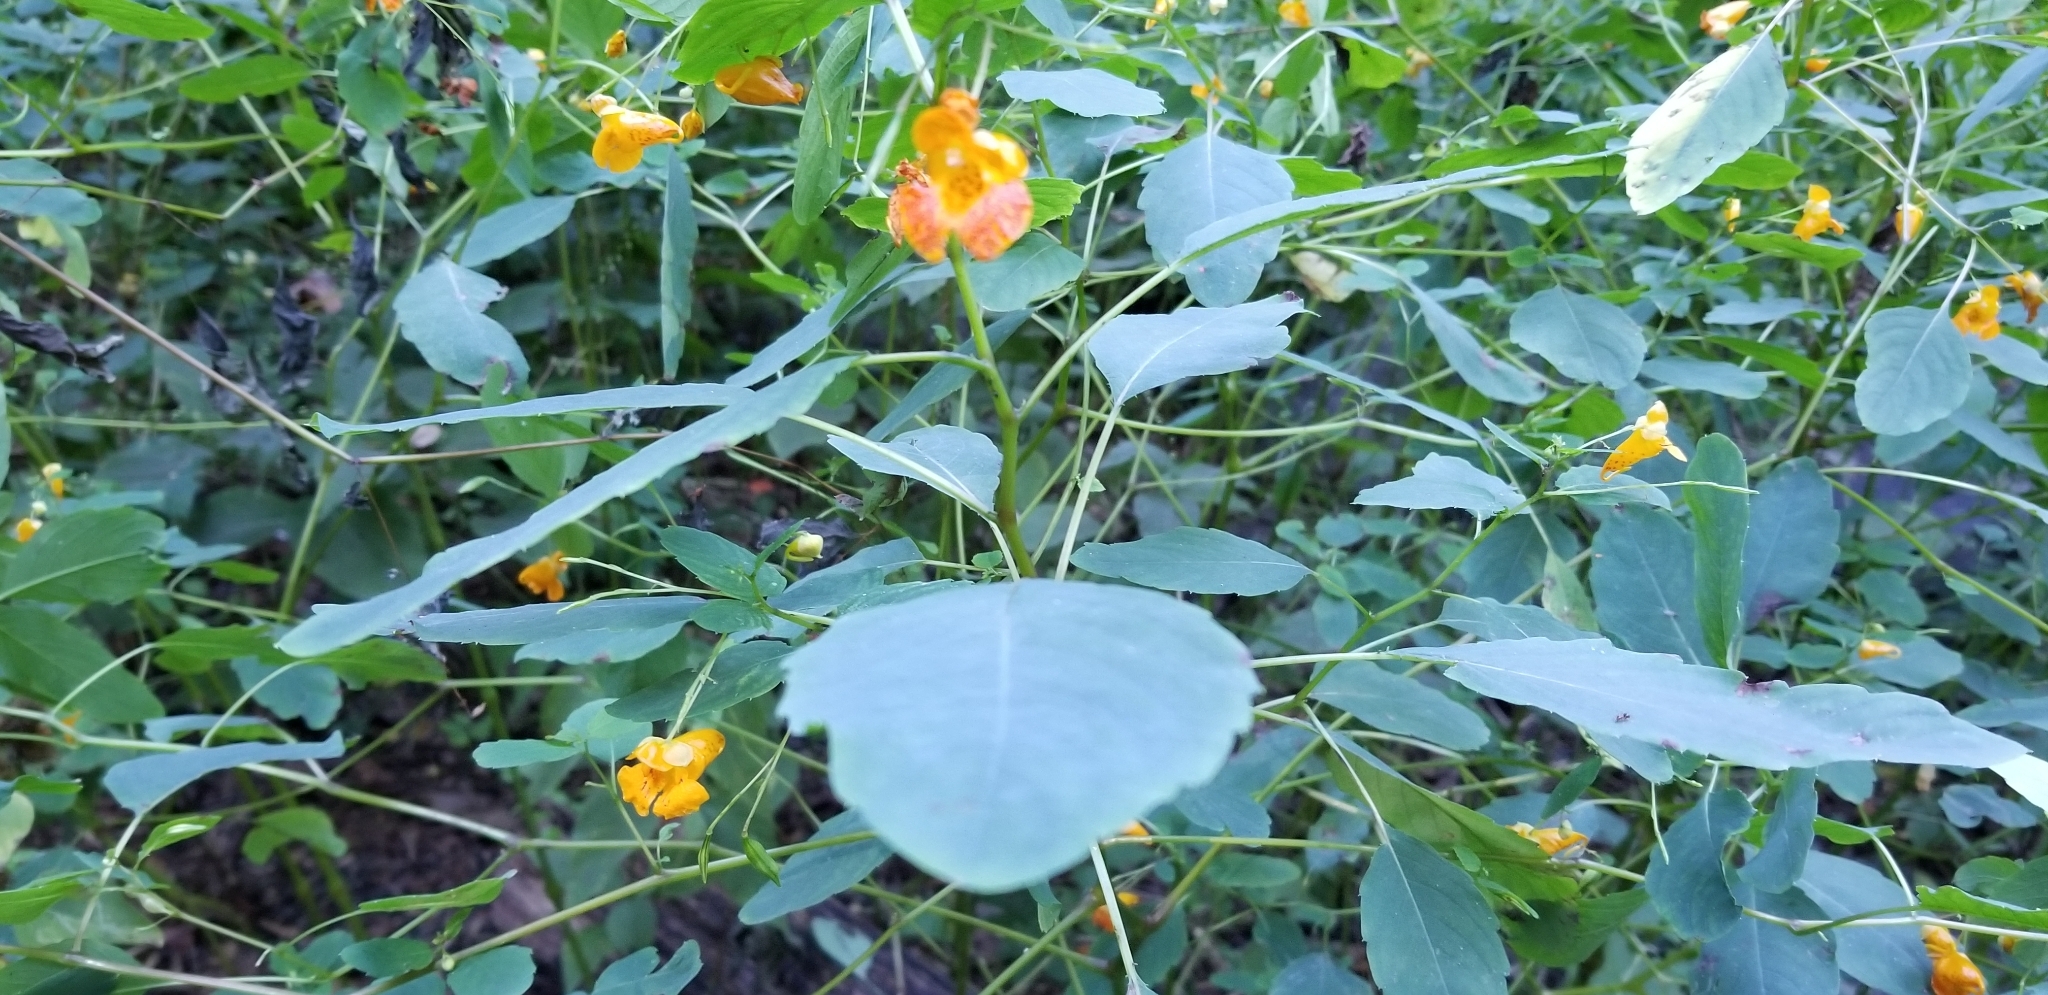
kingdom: Plantae
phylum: Tracheophyta
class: Magnoliopsida
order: Ericales
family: Balsaminaceae
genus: Impatiens
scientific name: Impatiens capensis
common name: Orange balsam
